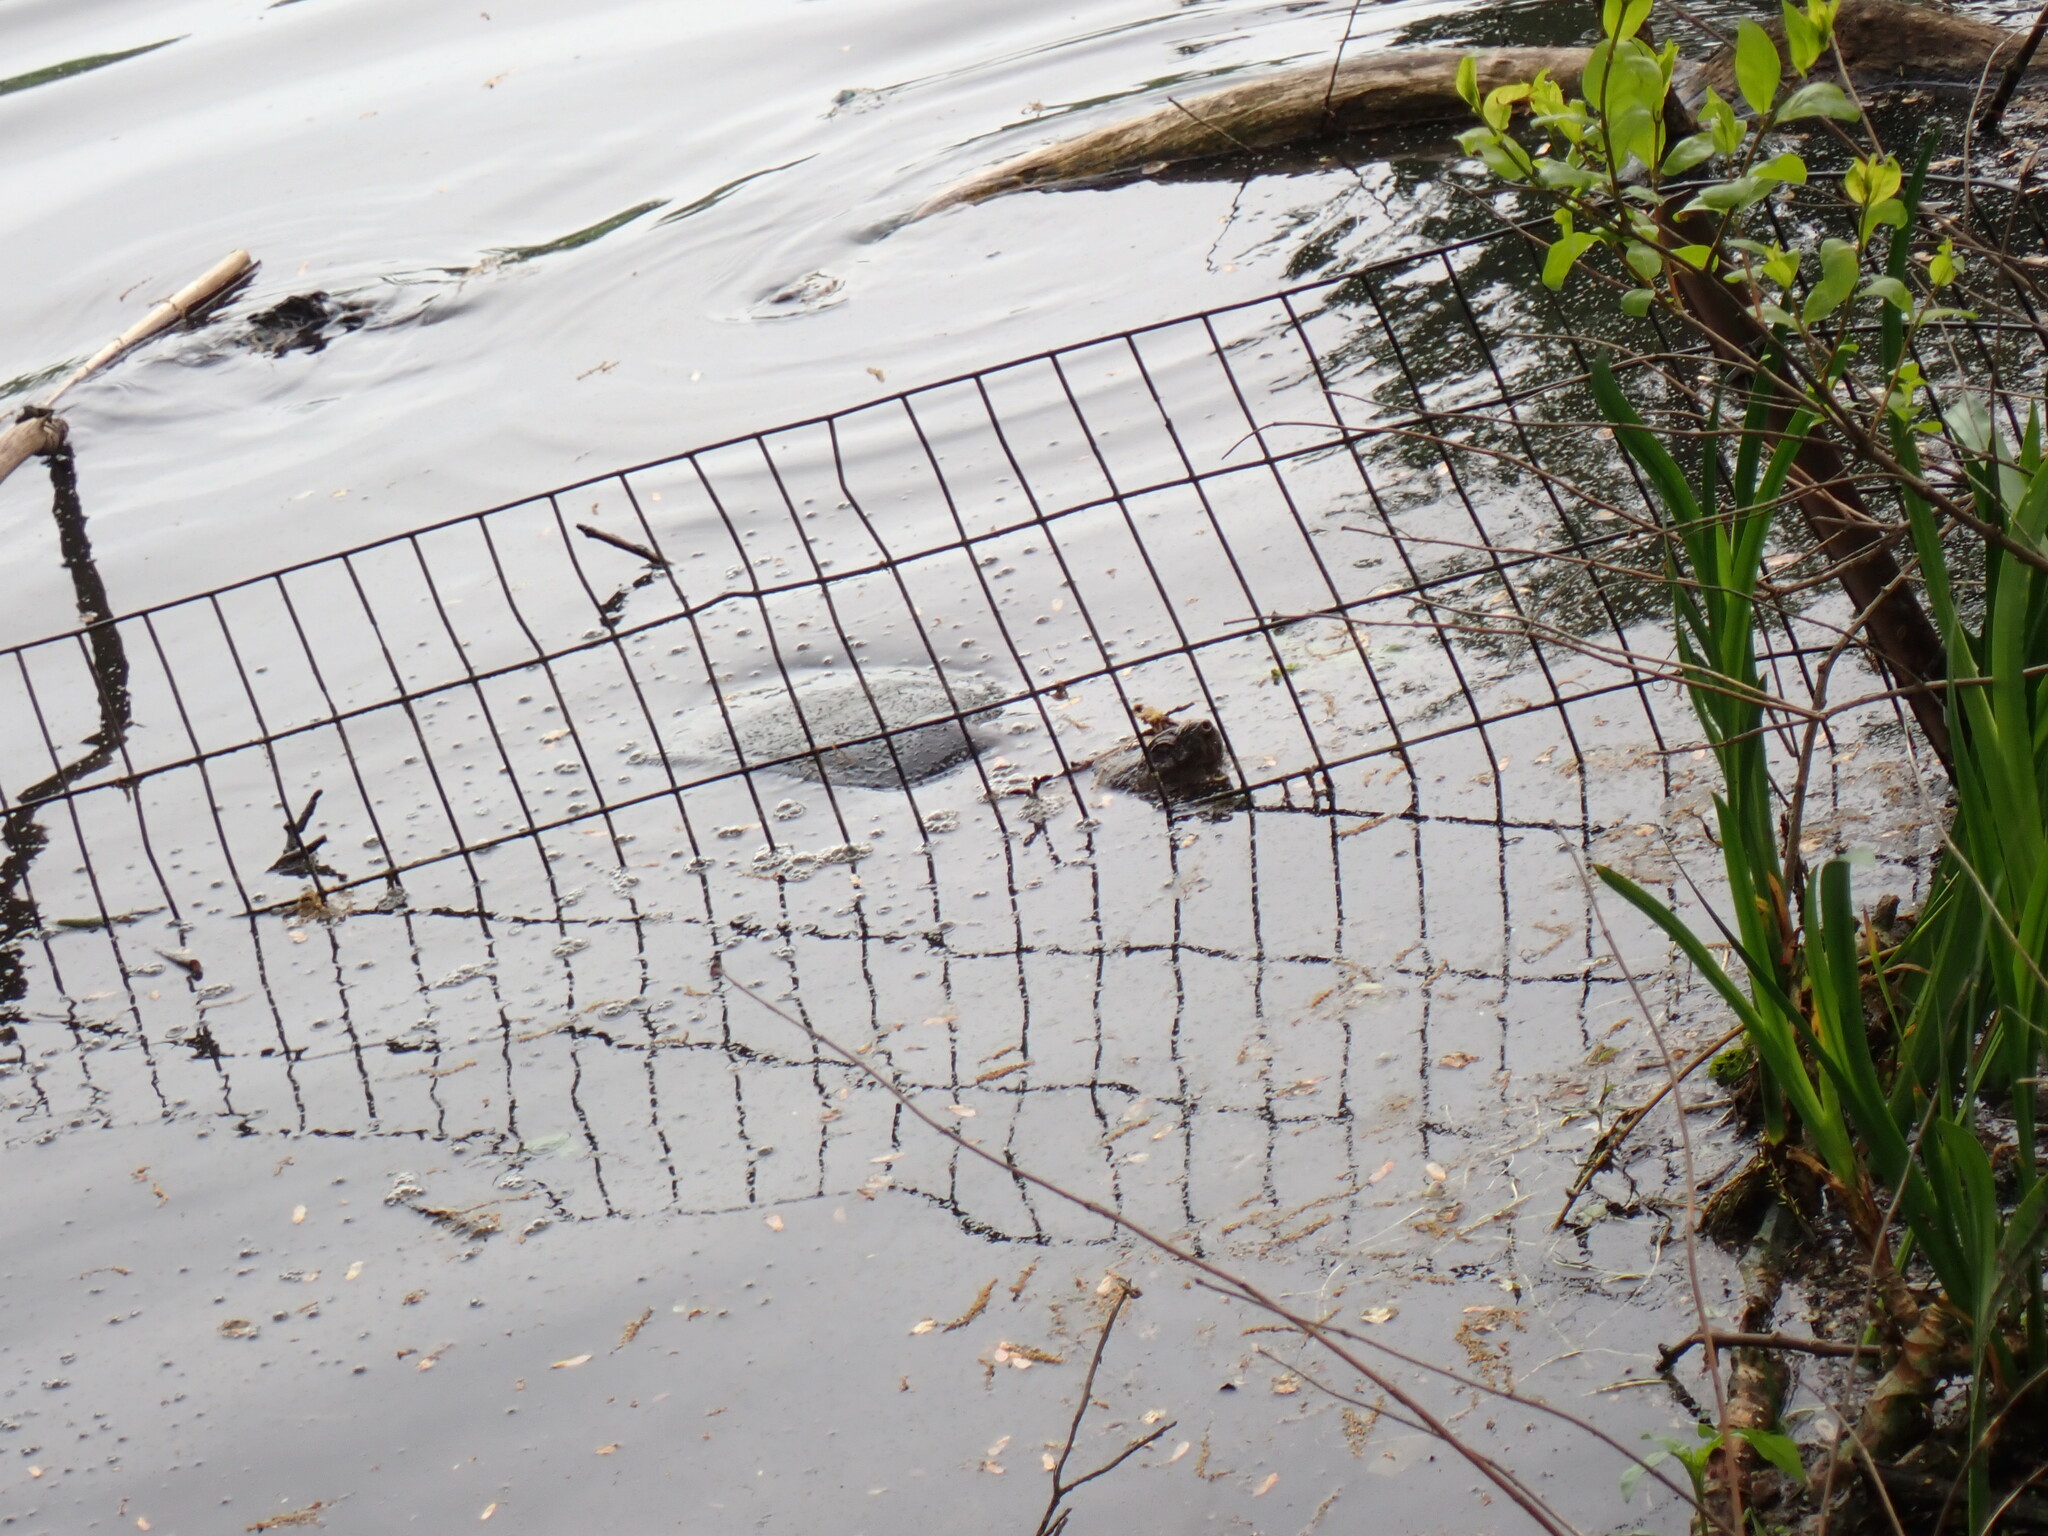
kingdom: Animalia
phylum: Chordata
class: Testudines
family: Chelydridae
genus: Chelydra
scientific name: Chelydra serpentina
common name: Common snapping turtle
